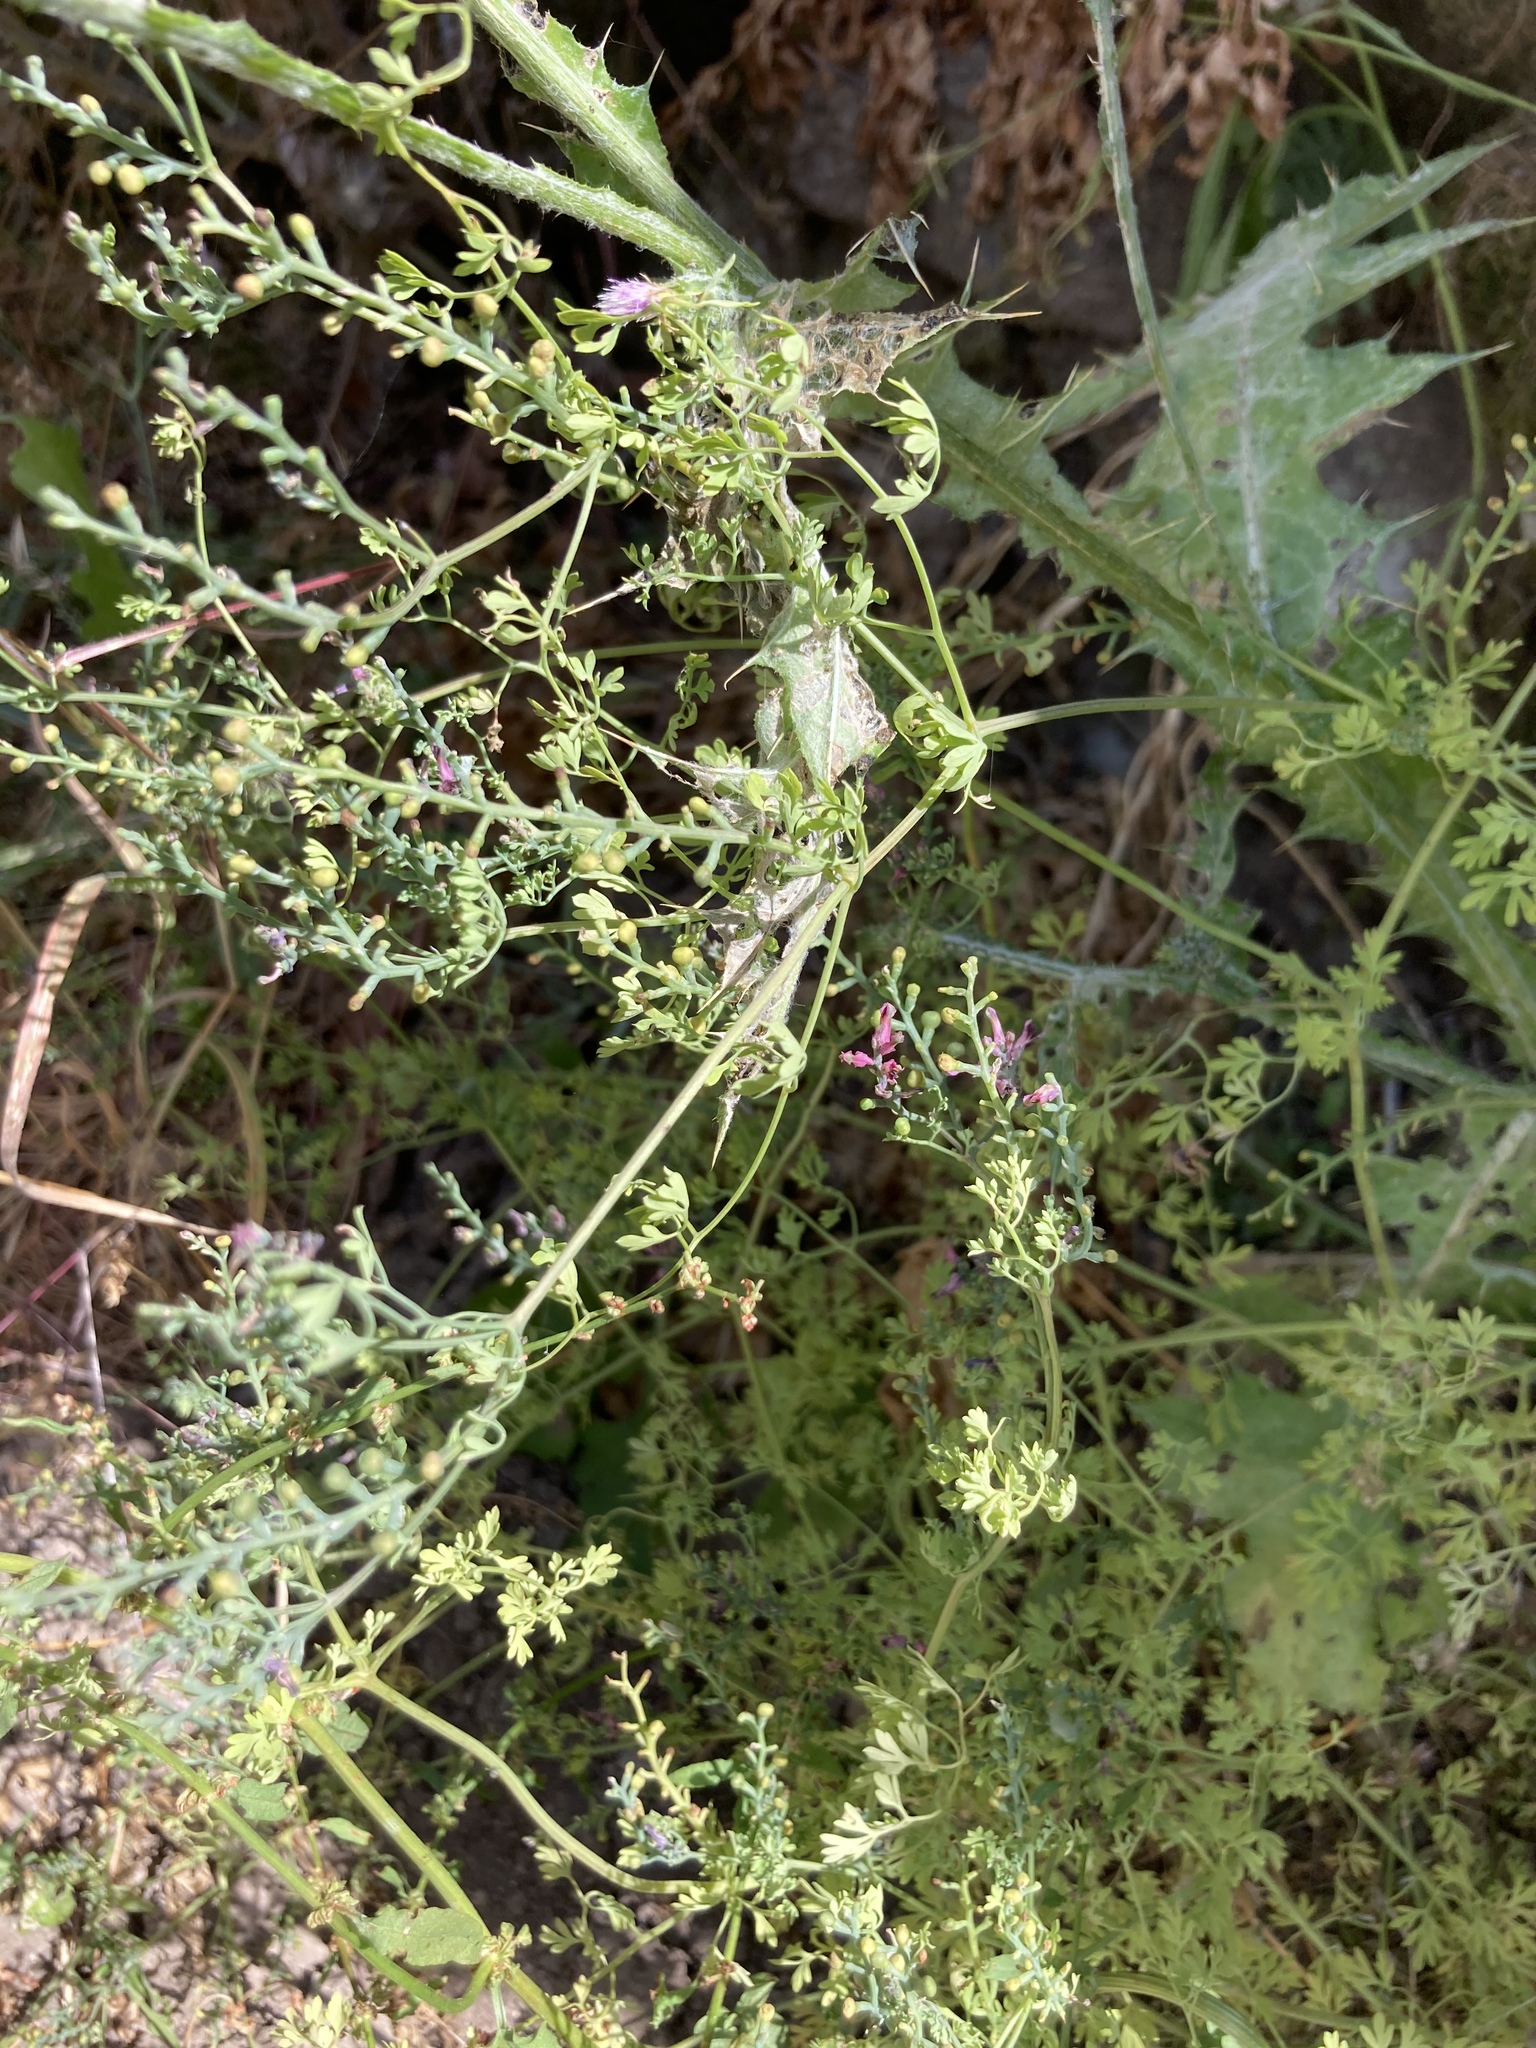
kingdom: Plantae
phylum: Tracheophyta
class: Magnoliopsida
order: Ranunculales
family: Papaveraceae
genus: Fumaria
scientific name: Fumaria officinalis
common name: Common fumitory
